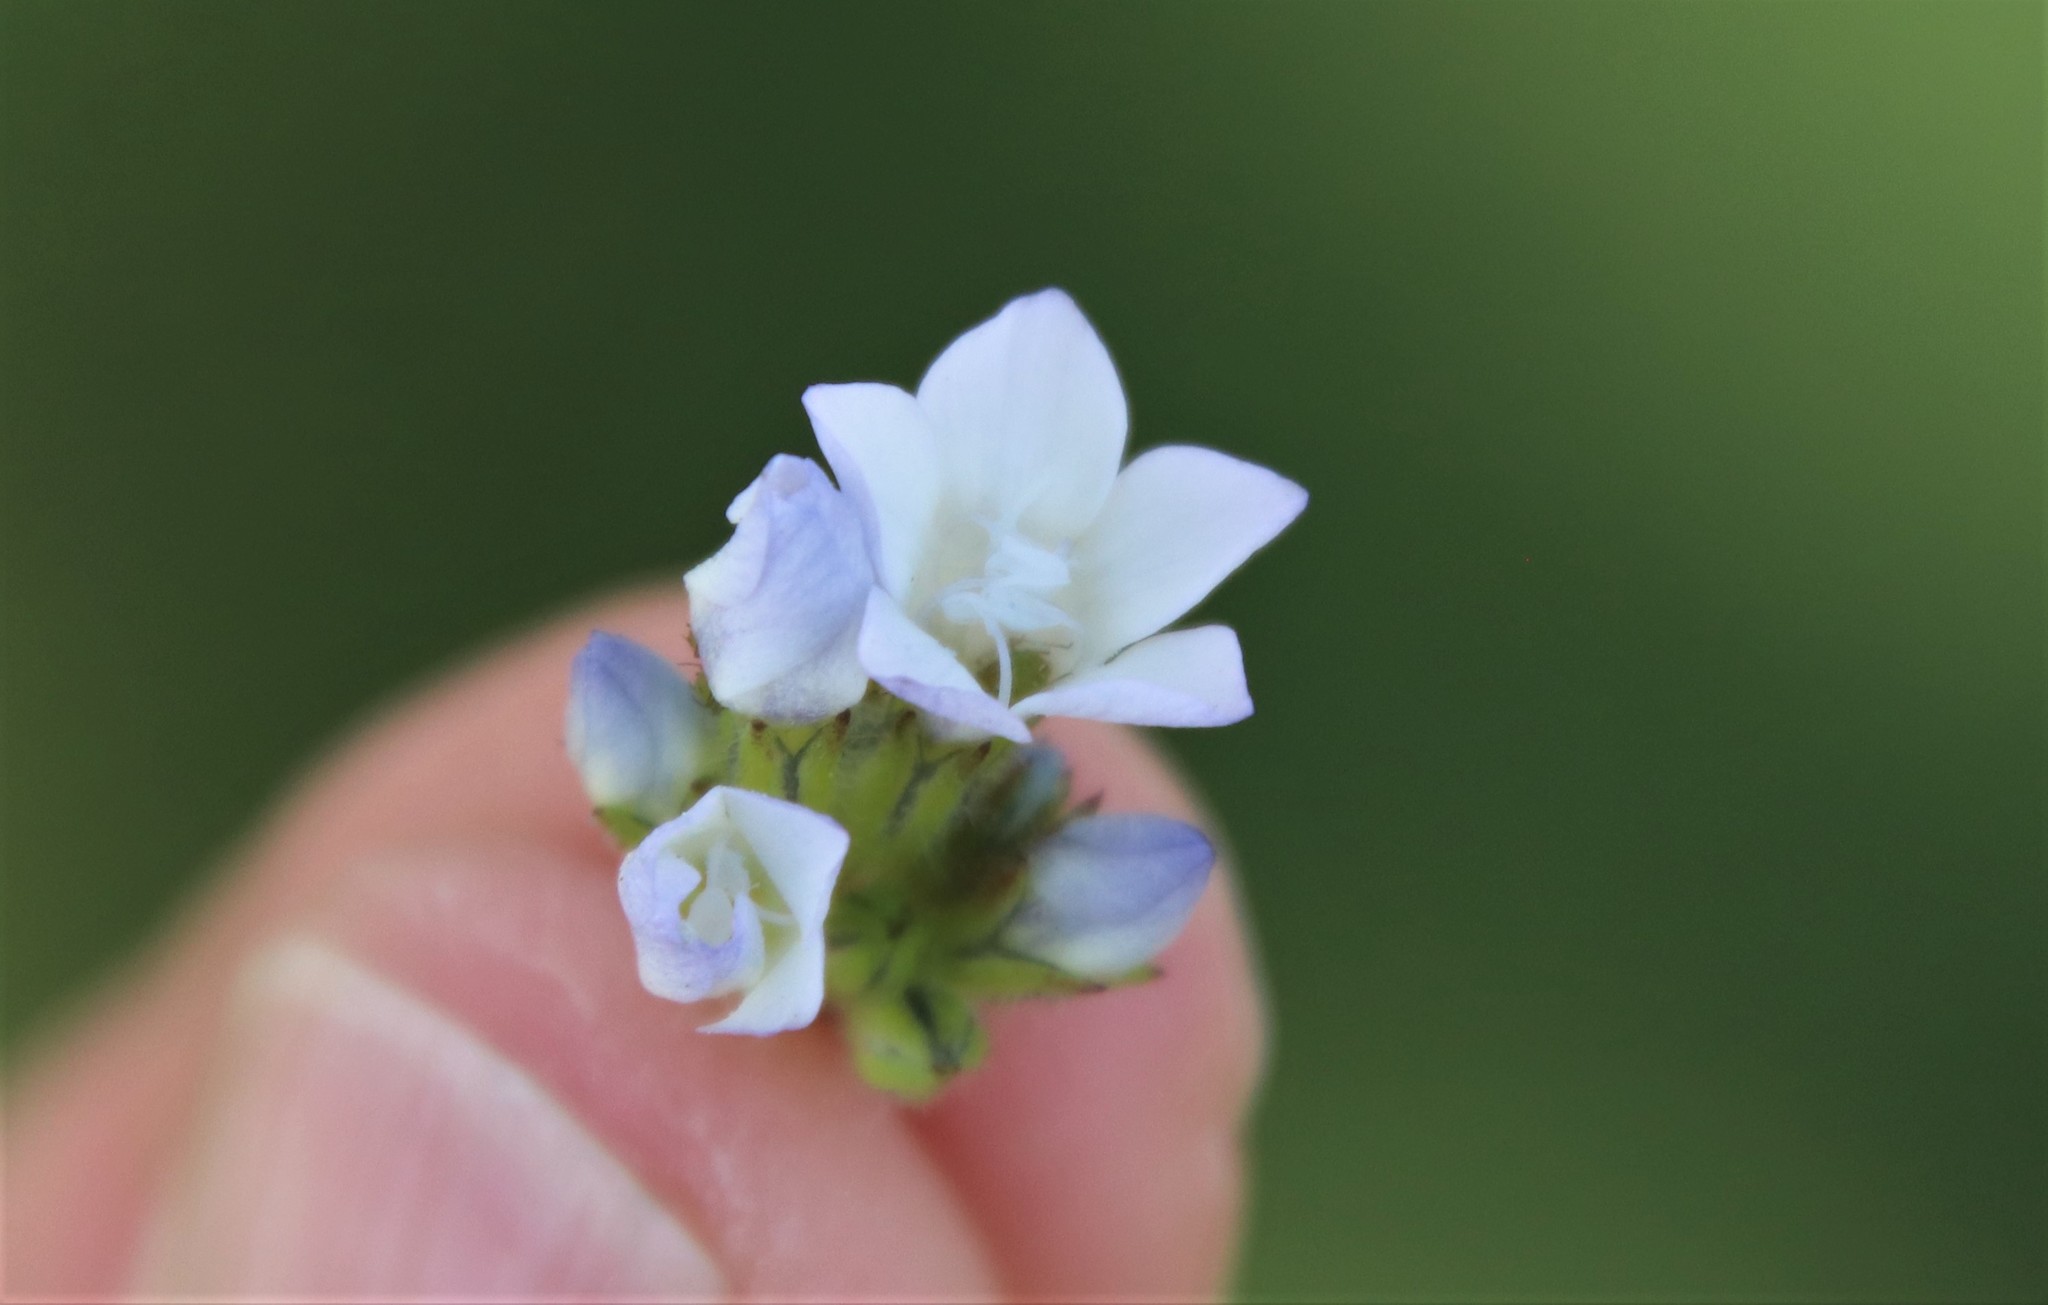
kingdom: Plantae
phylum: Tracheophyta
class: Magnoliopsida
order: Ericales
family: Polemoniaceae
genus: Gilia
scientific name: Gilia angelensis
